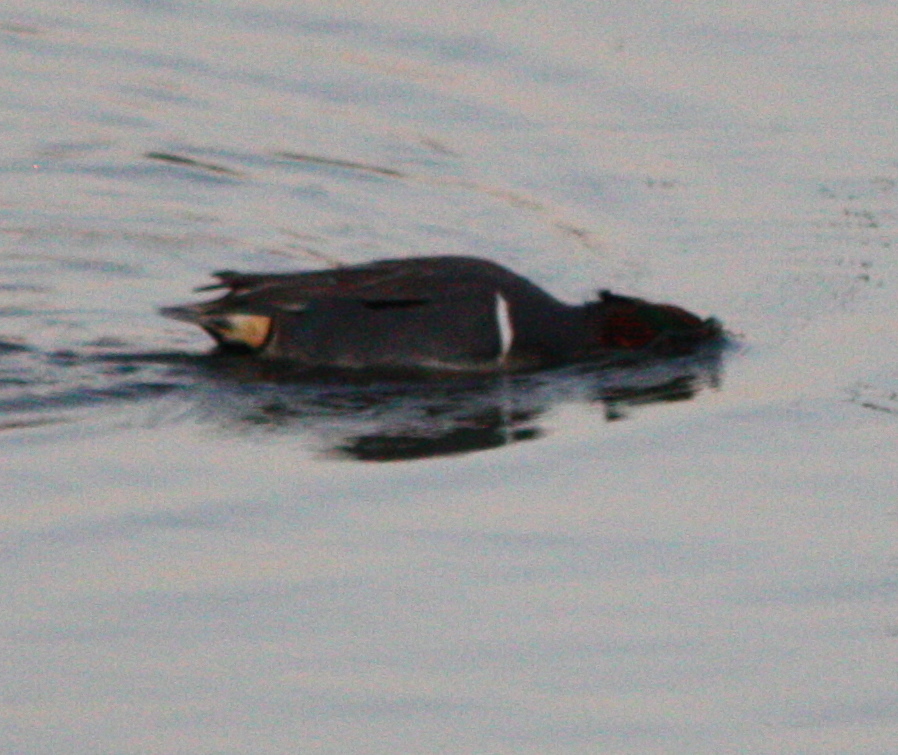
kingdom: Animalia
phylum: Chordata
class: Aves
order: Anseriformes
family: Anatidae
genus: Anas
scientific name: Anas crecca
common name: Eurasian teal
